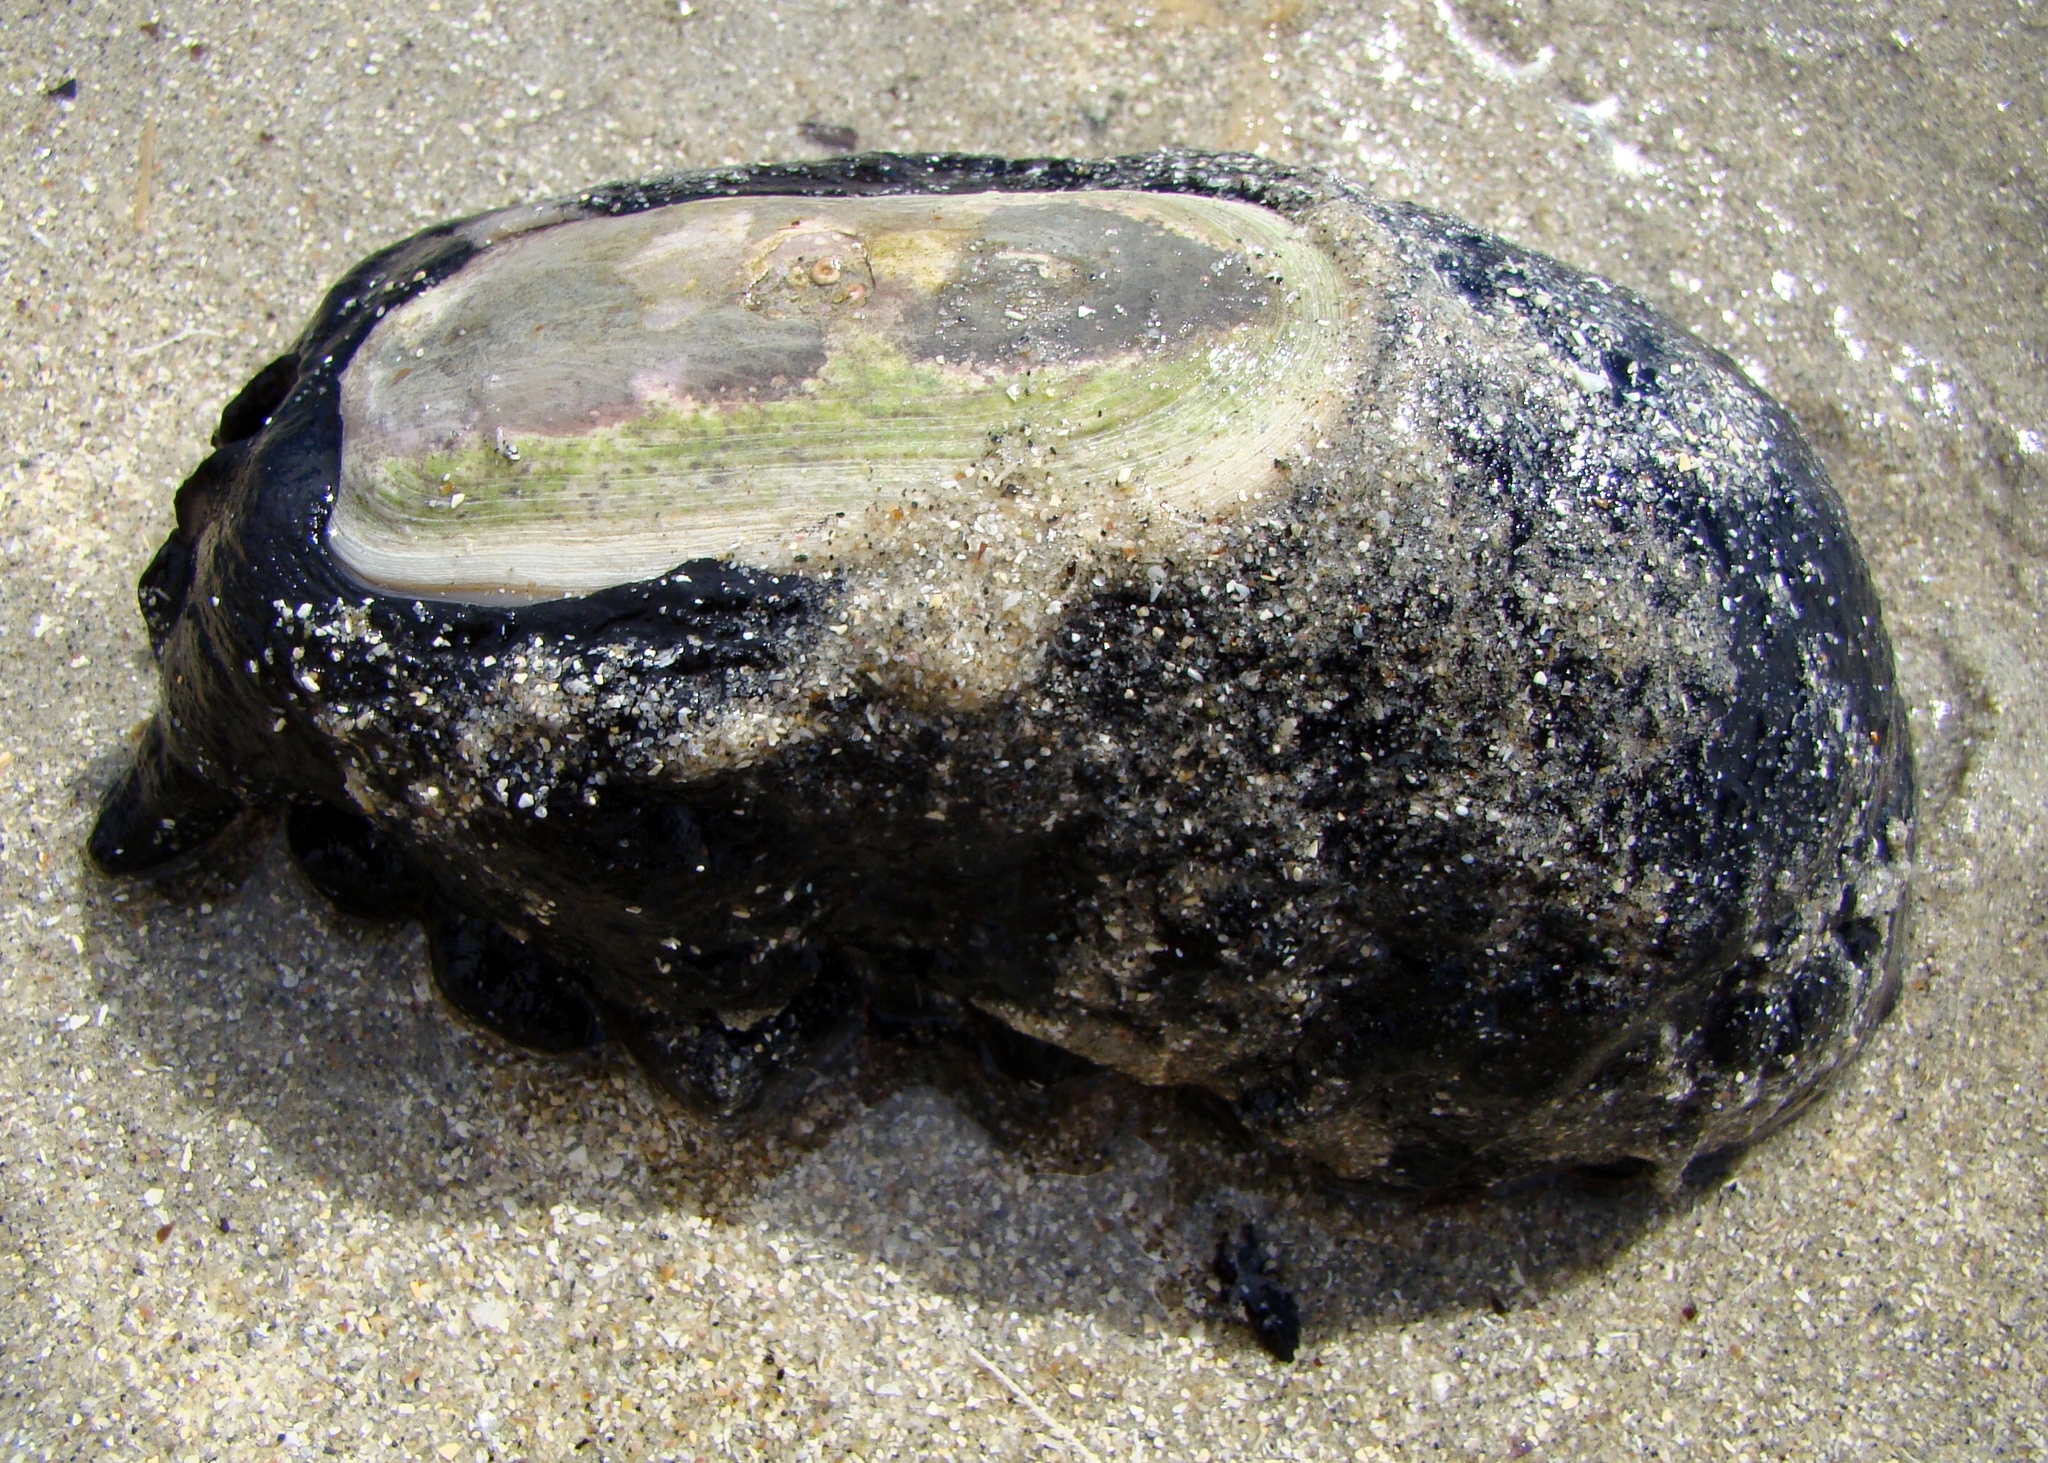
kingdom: Animalia
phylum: Mollusca
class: Gastropoda
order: Lepetellida
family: Fissurellidae
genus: Scutus
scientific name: Scutus breviculus
